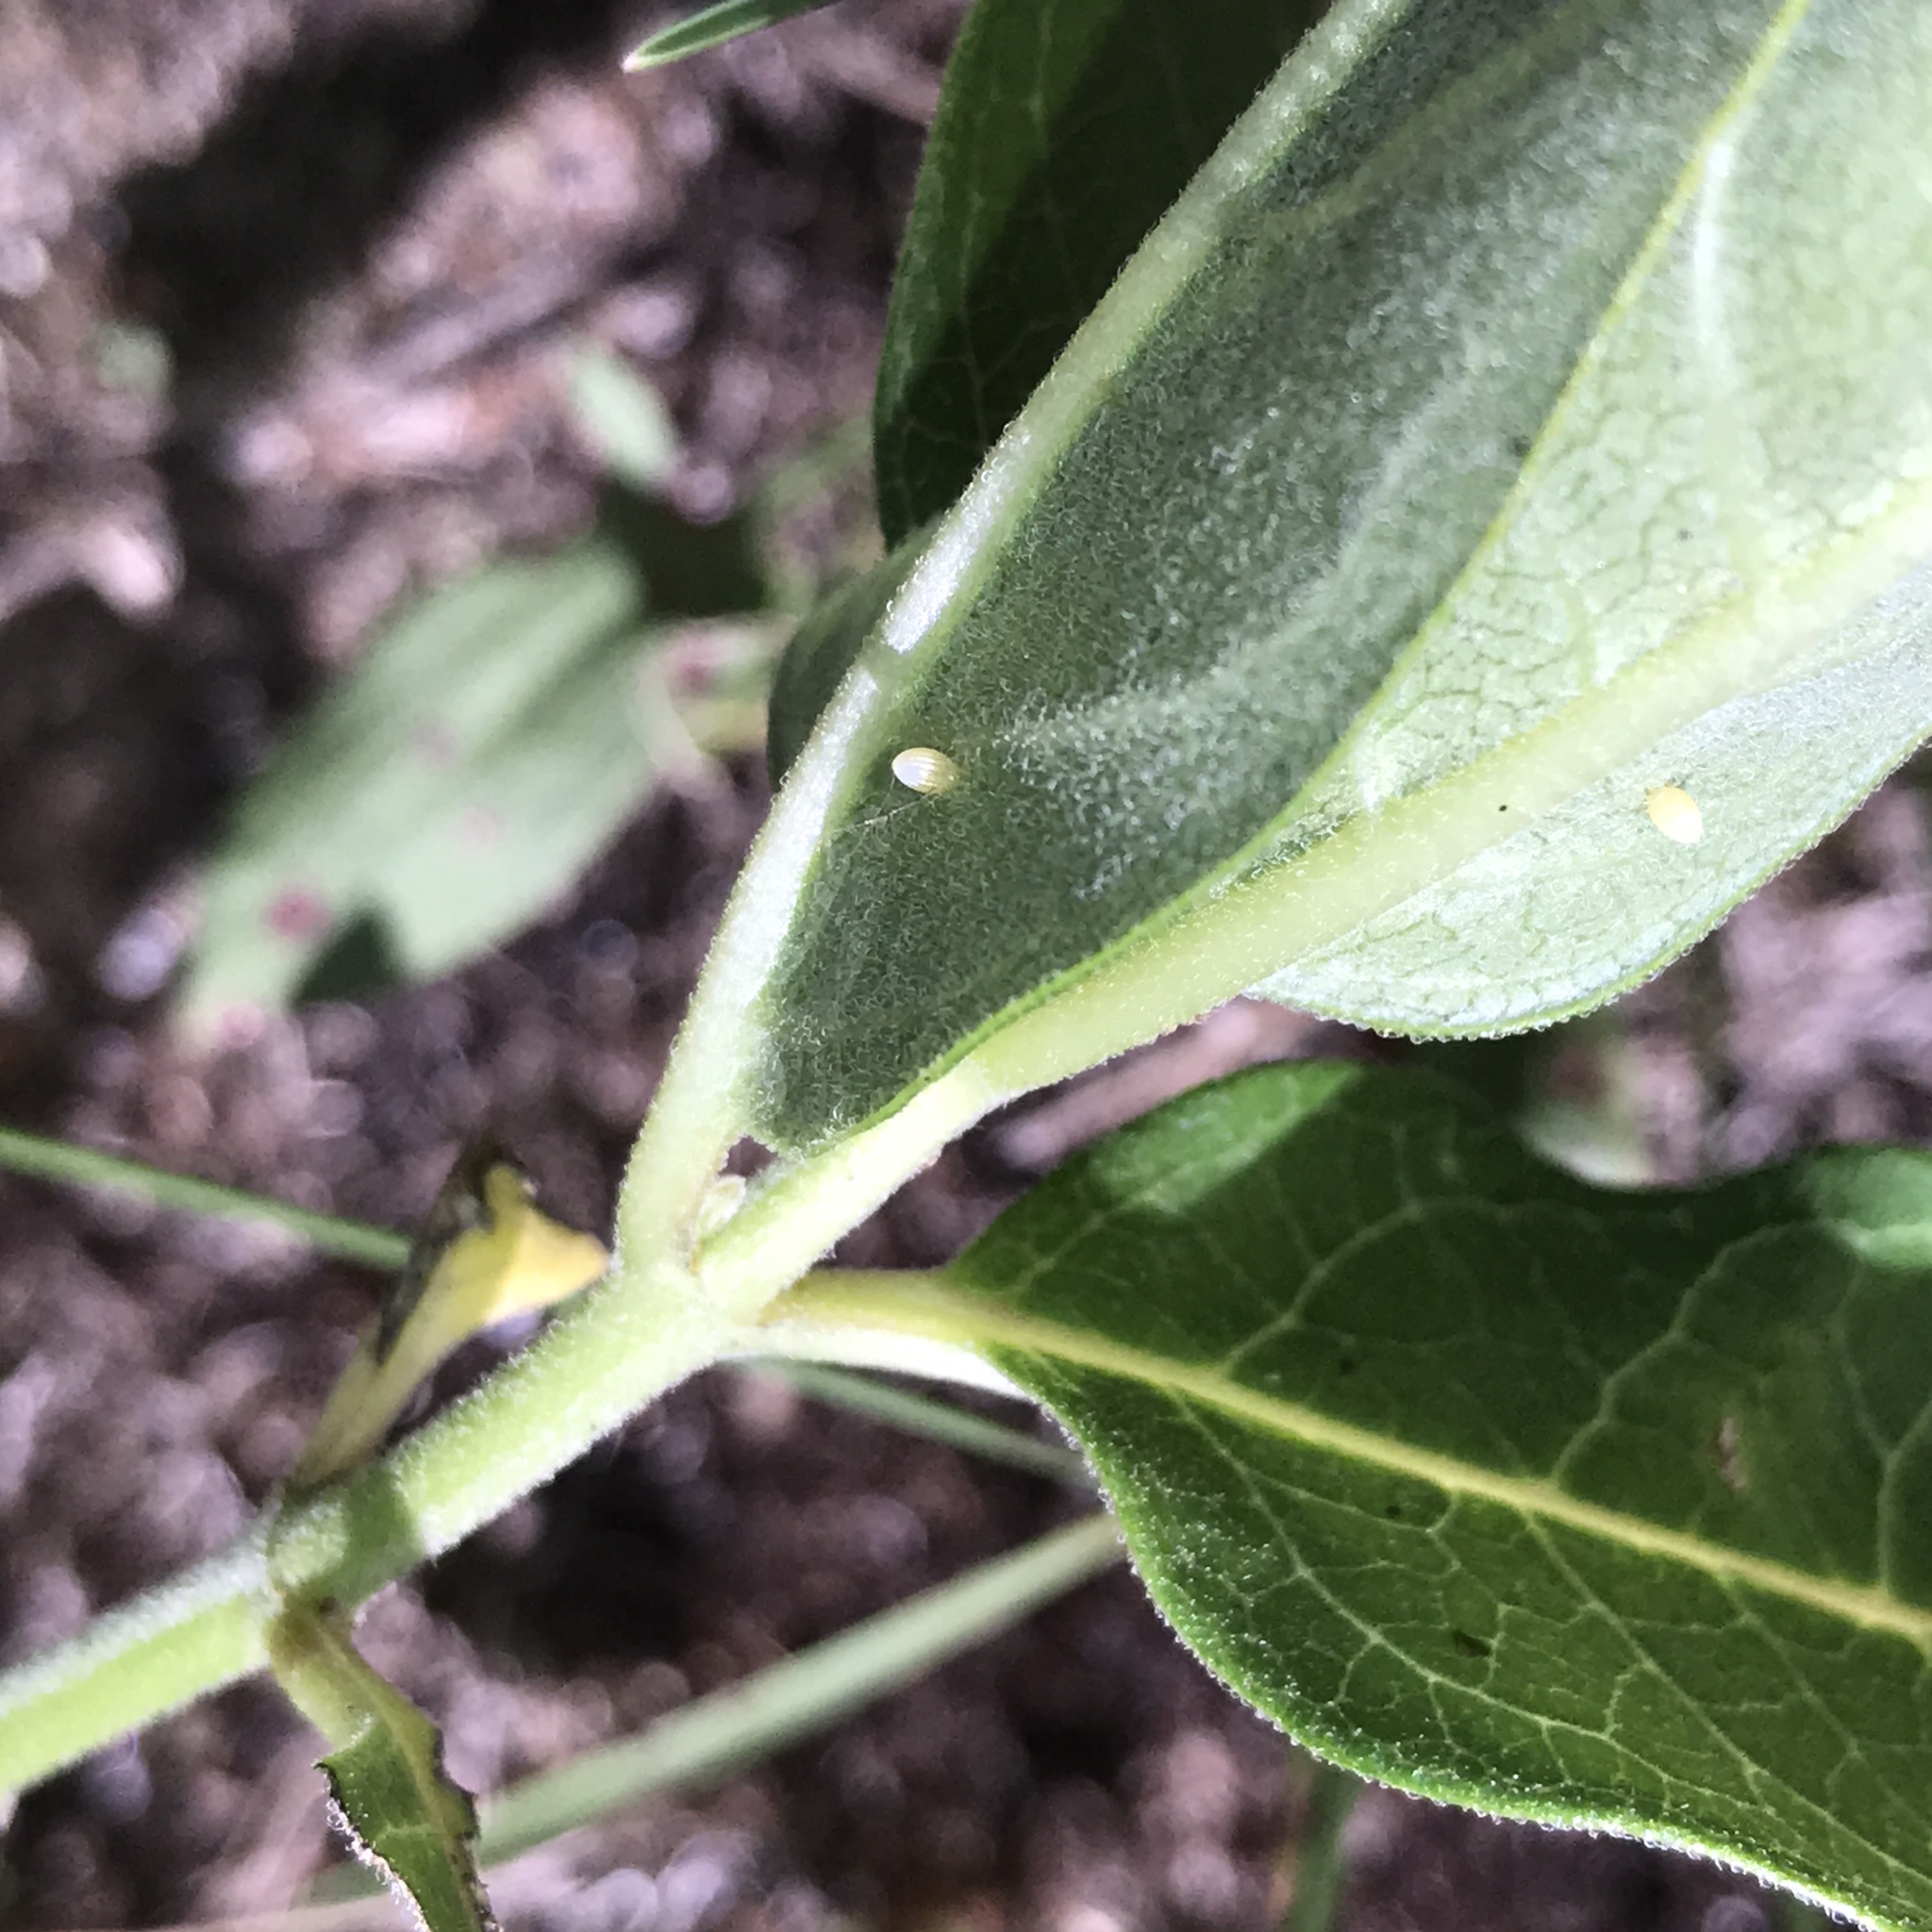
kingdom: Animalia
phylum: Arthropoda
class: Insecta
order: Lepidoptera
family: Nymphalidae
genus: Danaus
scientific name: Danaus plexippus
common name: Monarch
